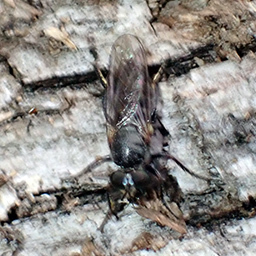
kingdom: Animalia
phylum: Arthropoda
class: Insecta
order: Diptera
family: Asilidae
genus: Atomosia
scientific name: Atomosia puella
